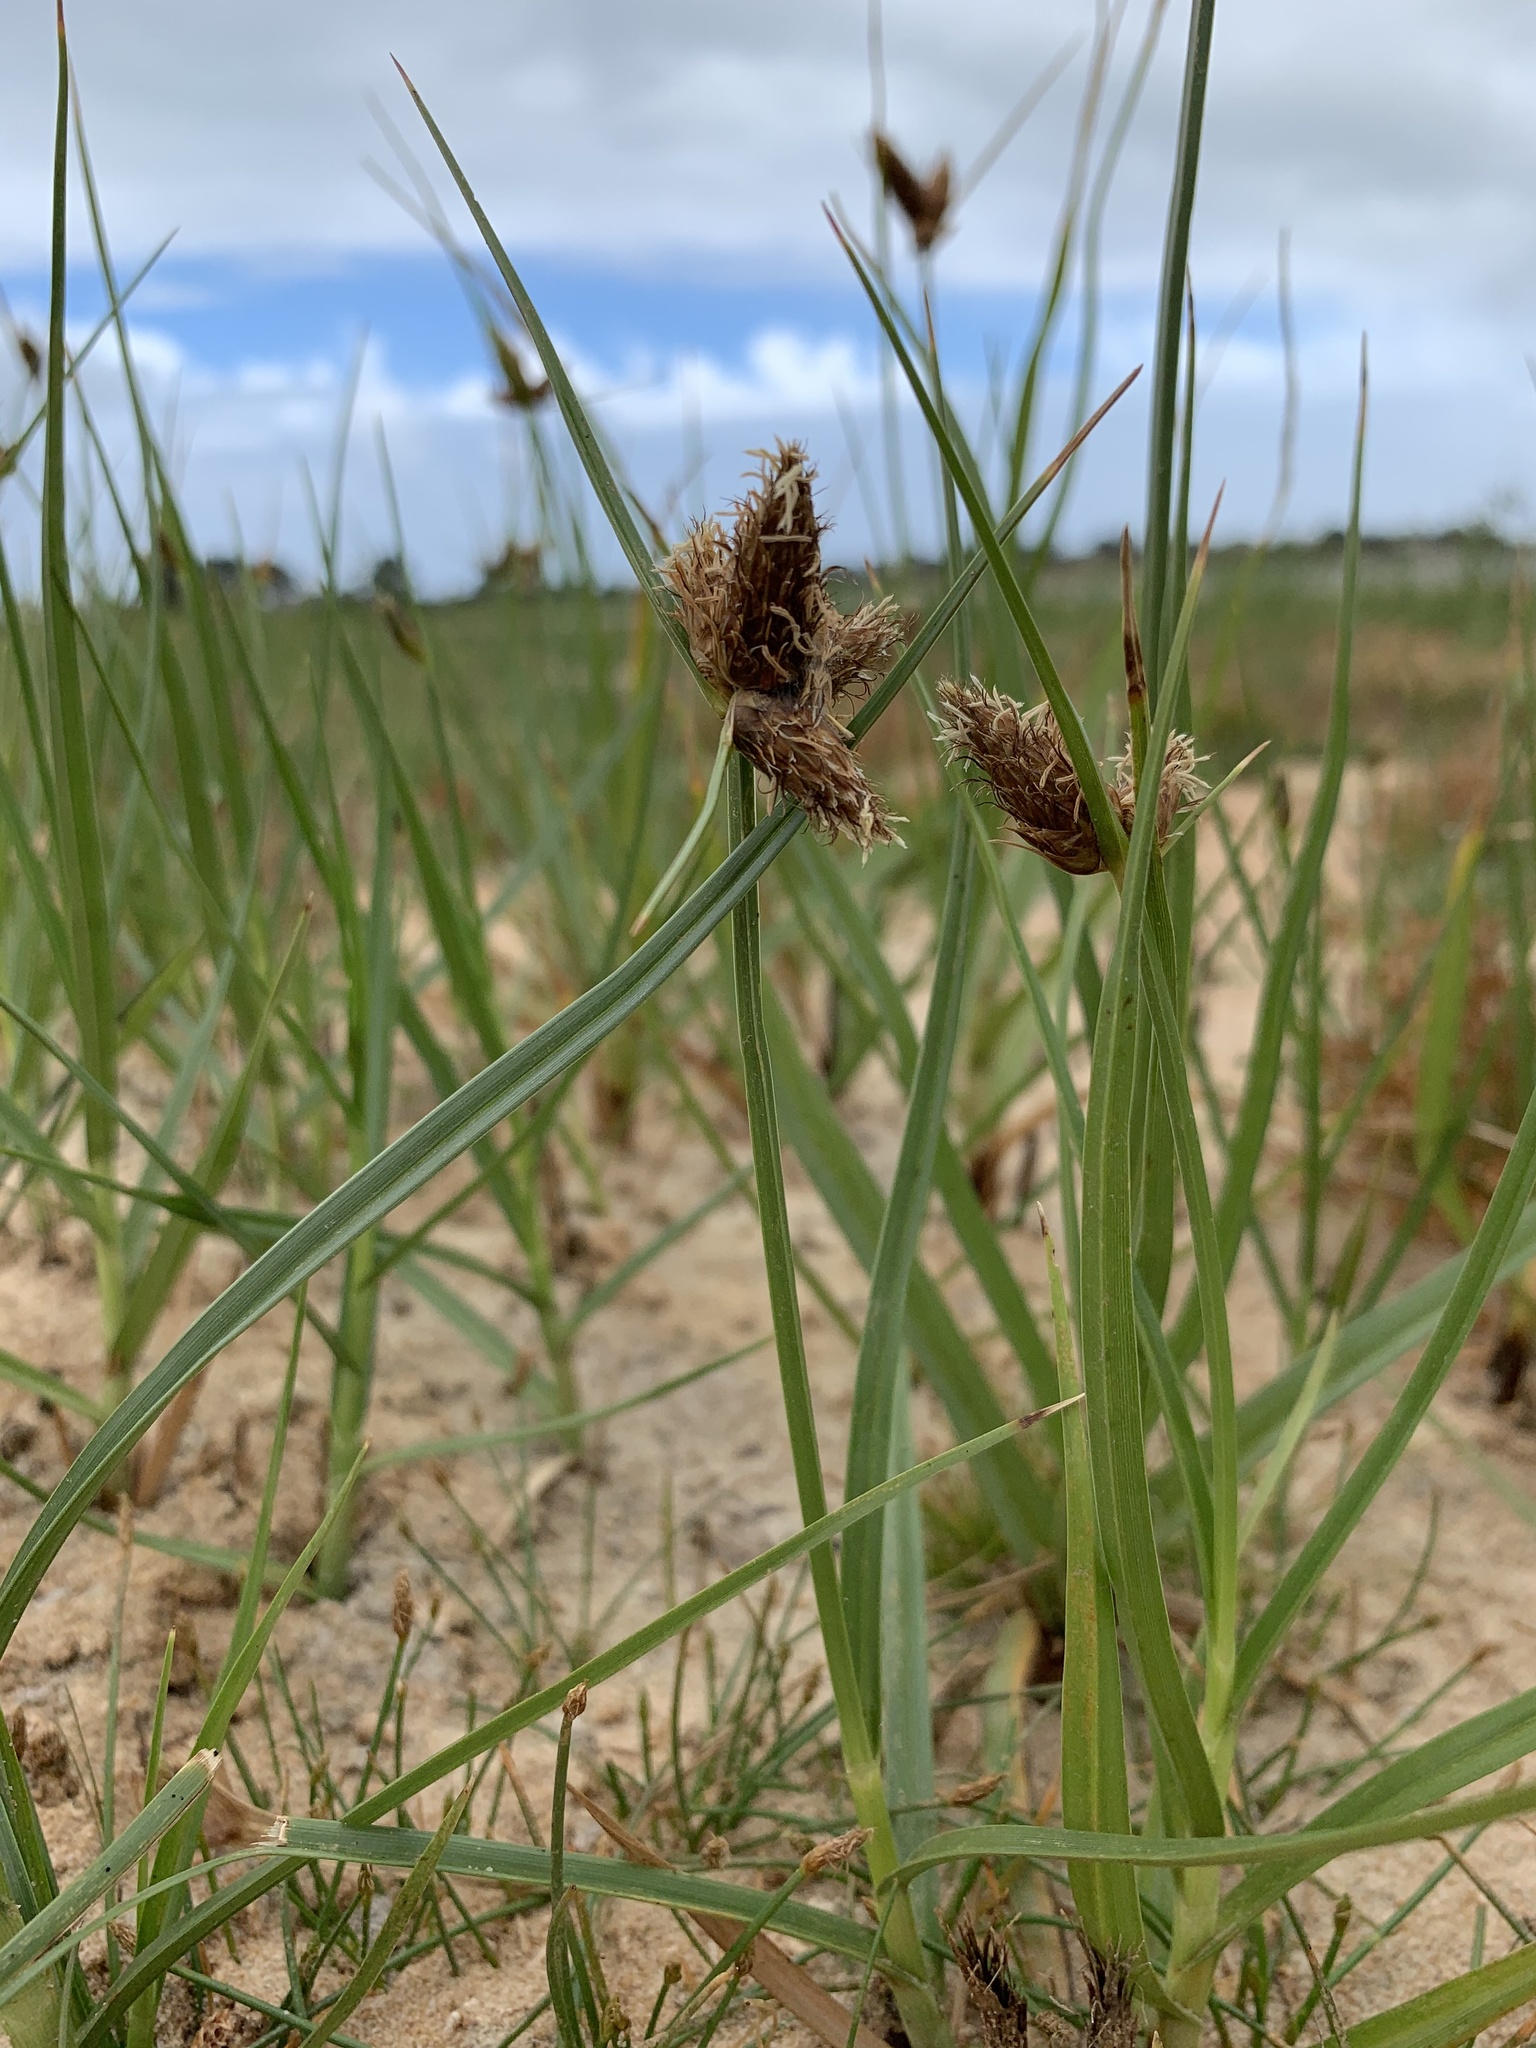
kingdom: Plantae
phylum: Tracheophyta
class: Liliopsida
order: Poales
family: Cyperaceae
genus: Bolboschoenus
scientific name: Bolboschoenus maritimus
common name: Sea club-rush
